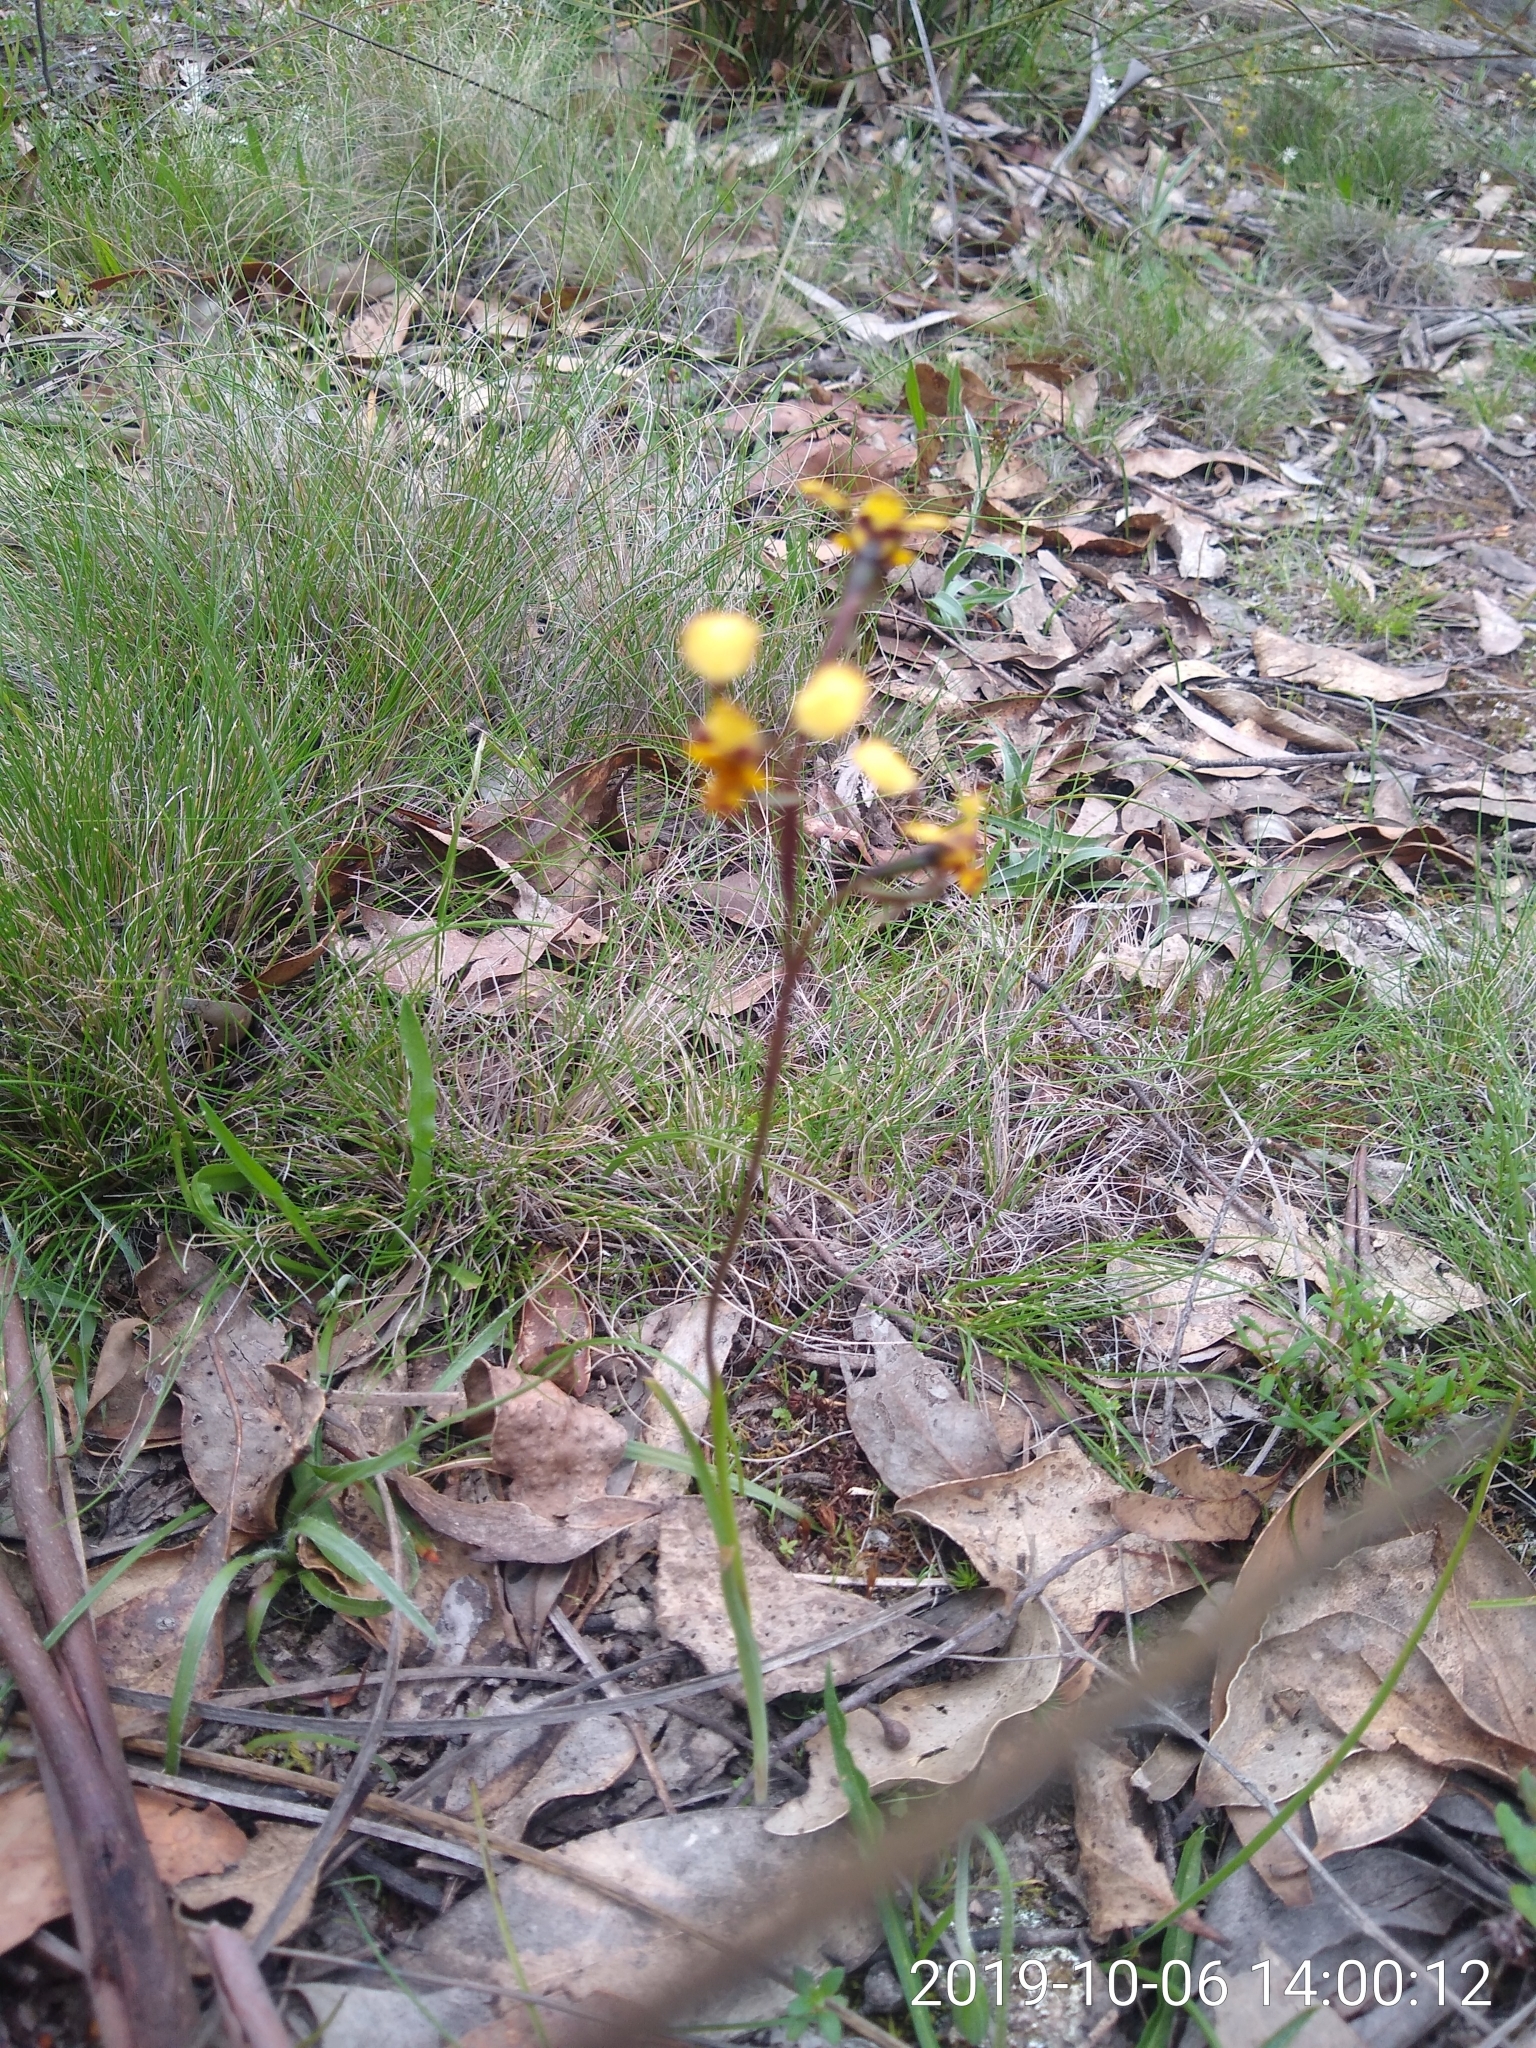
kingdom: Plantae
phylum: Tracheophyta
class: Liliopsida
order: Asparagales
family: Orchidaceae
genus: Diuris
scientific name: Diuris pardina
